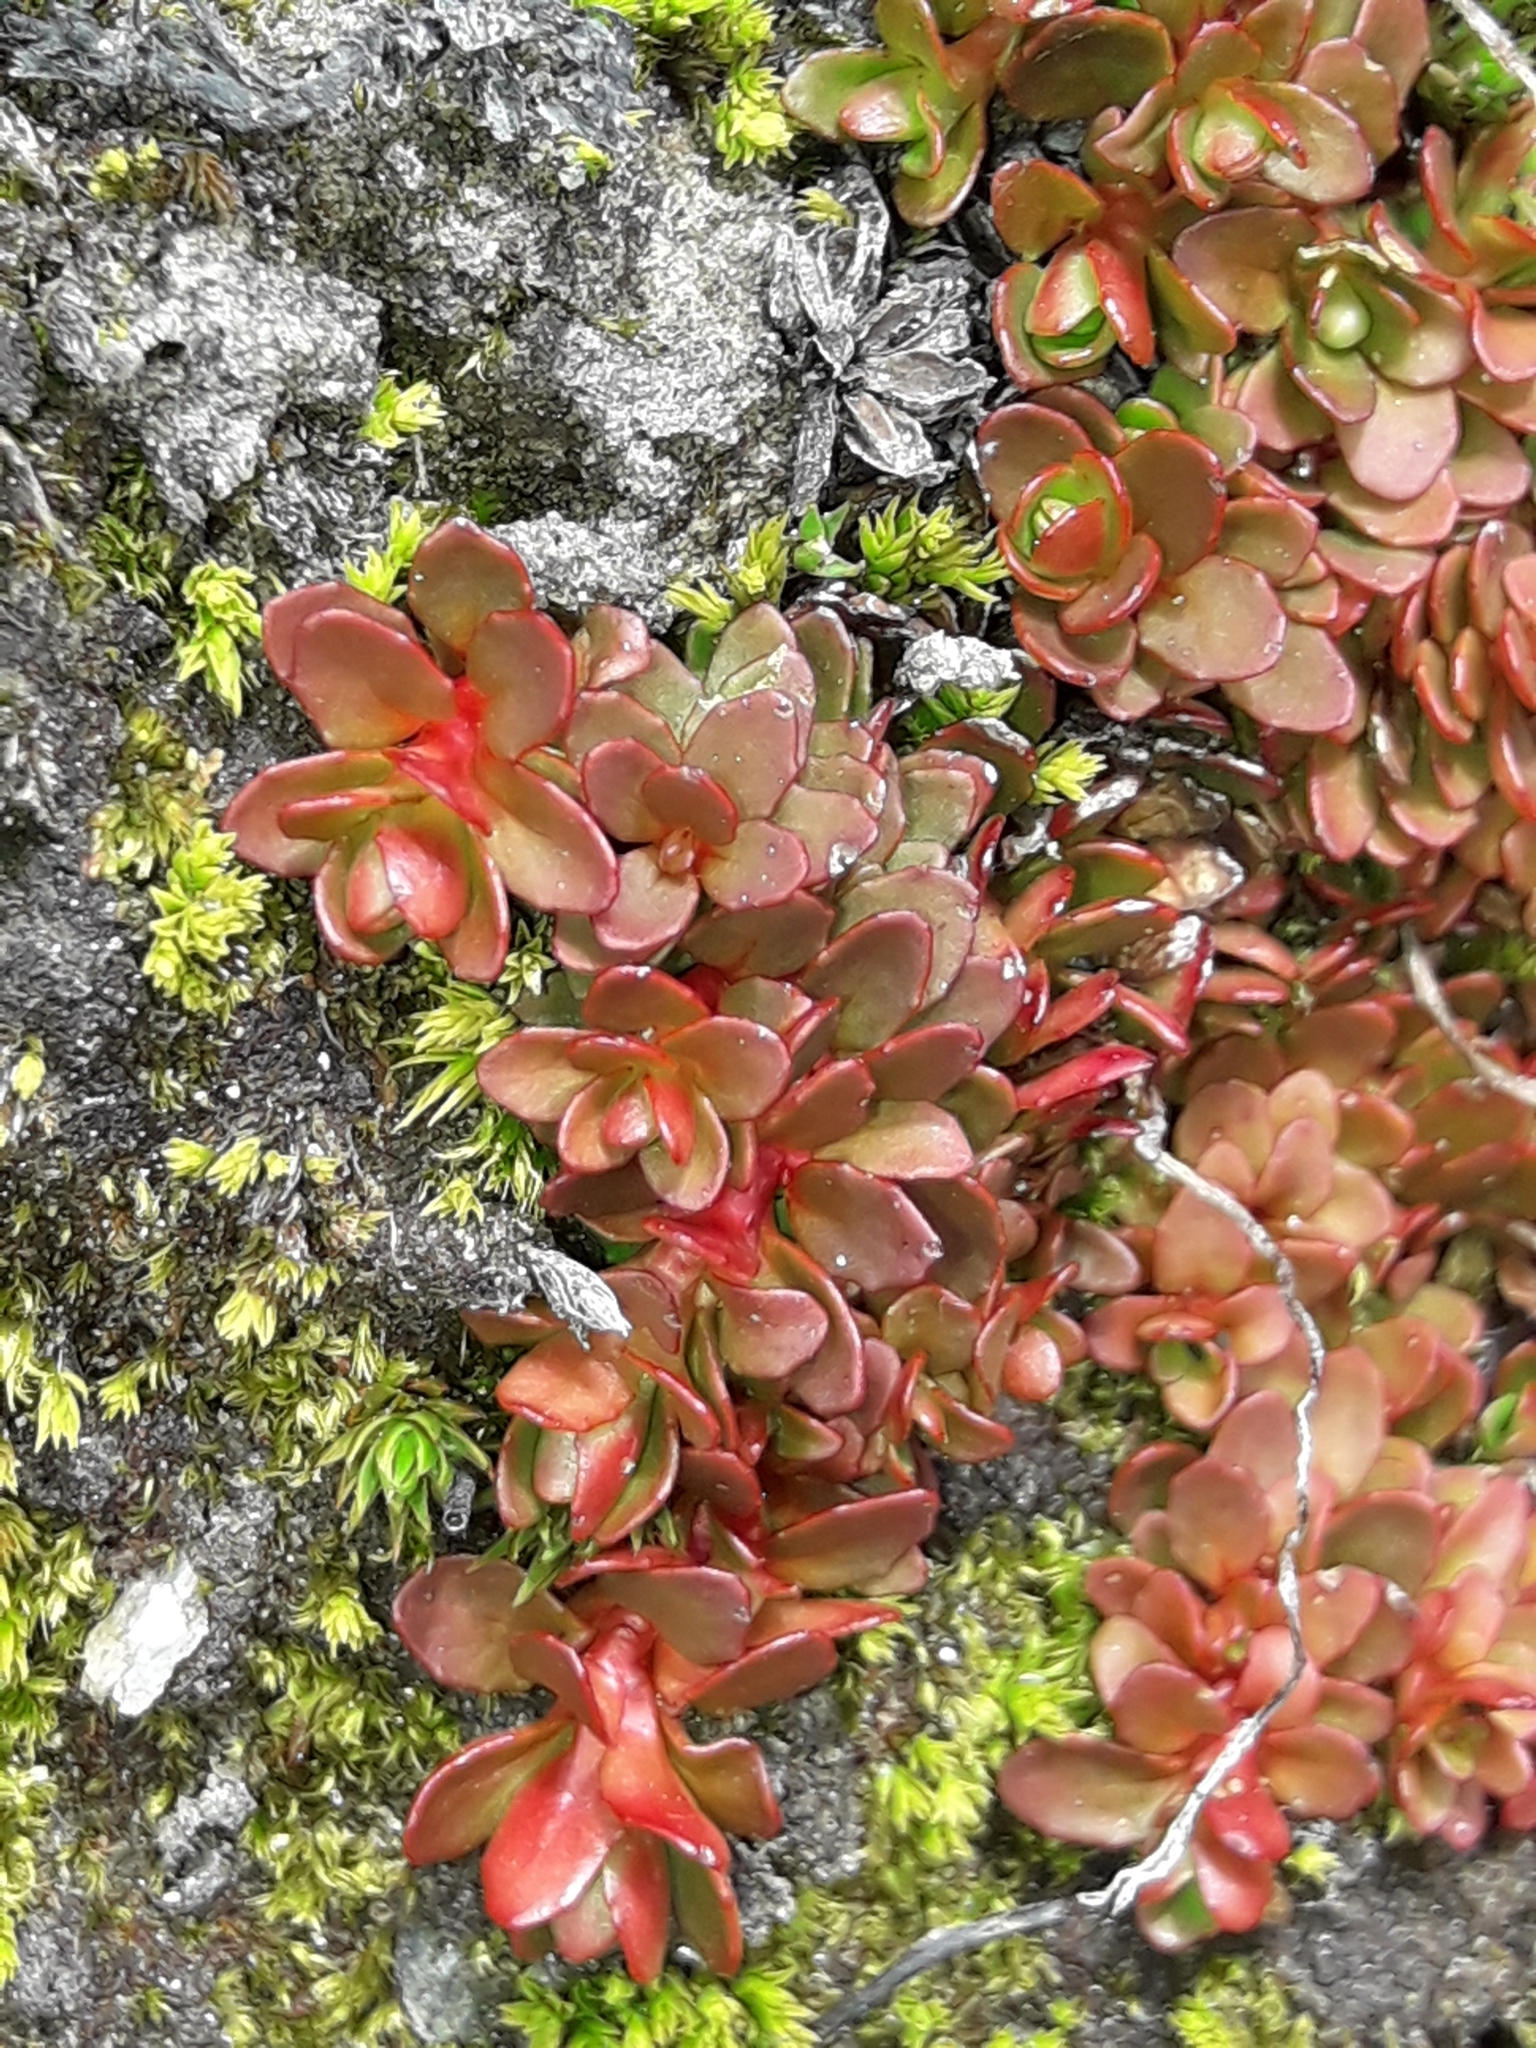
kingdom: Plantae
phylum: Tracheophyta
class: Magnoliopsida
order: Myrtales
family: Onagraceae
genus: Epilobium
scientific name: Epilobium tasmanicum
